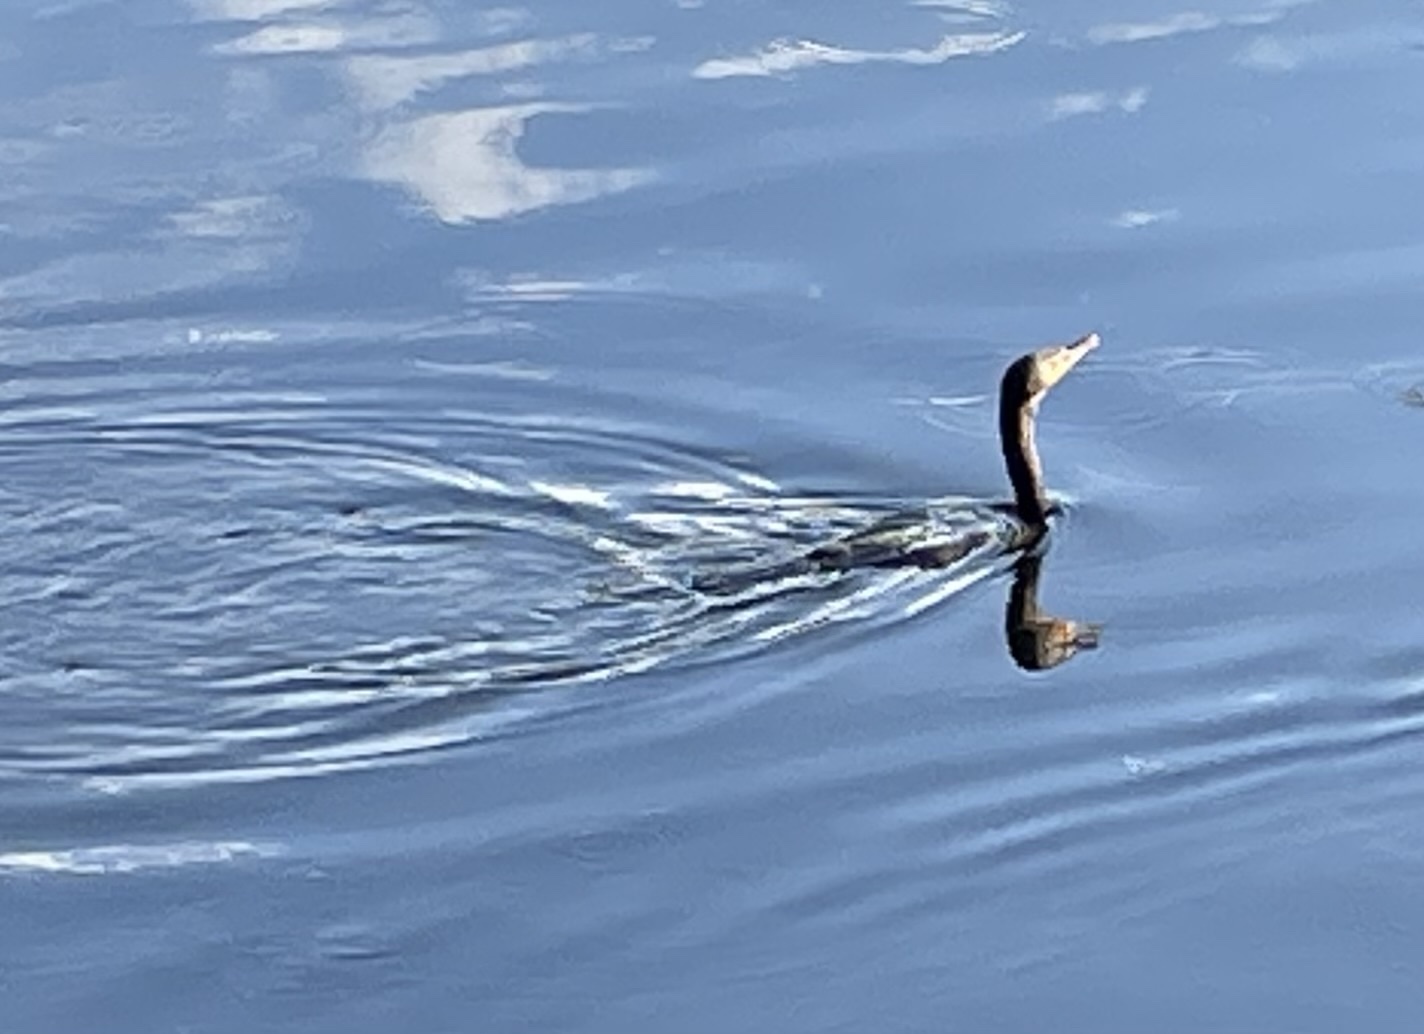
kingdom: Animalia
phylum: Chordata
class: Aves
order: Suliformes
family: Phalacrocoracidae
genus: Phalacrocorax
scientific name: Phalacrocorax auritus
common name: Double-crested cormorant
